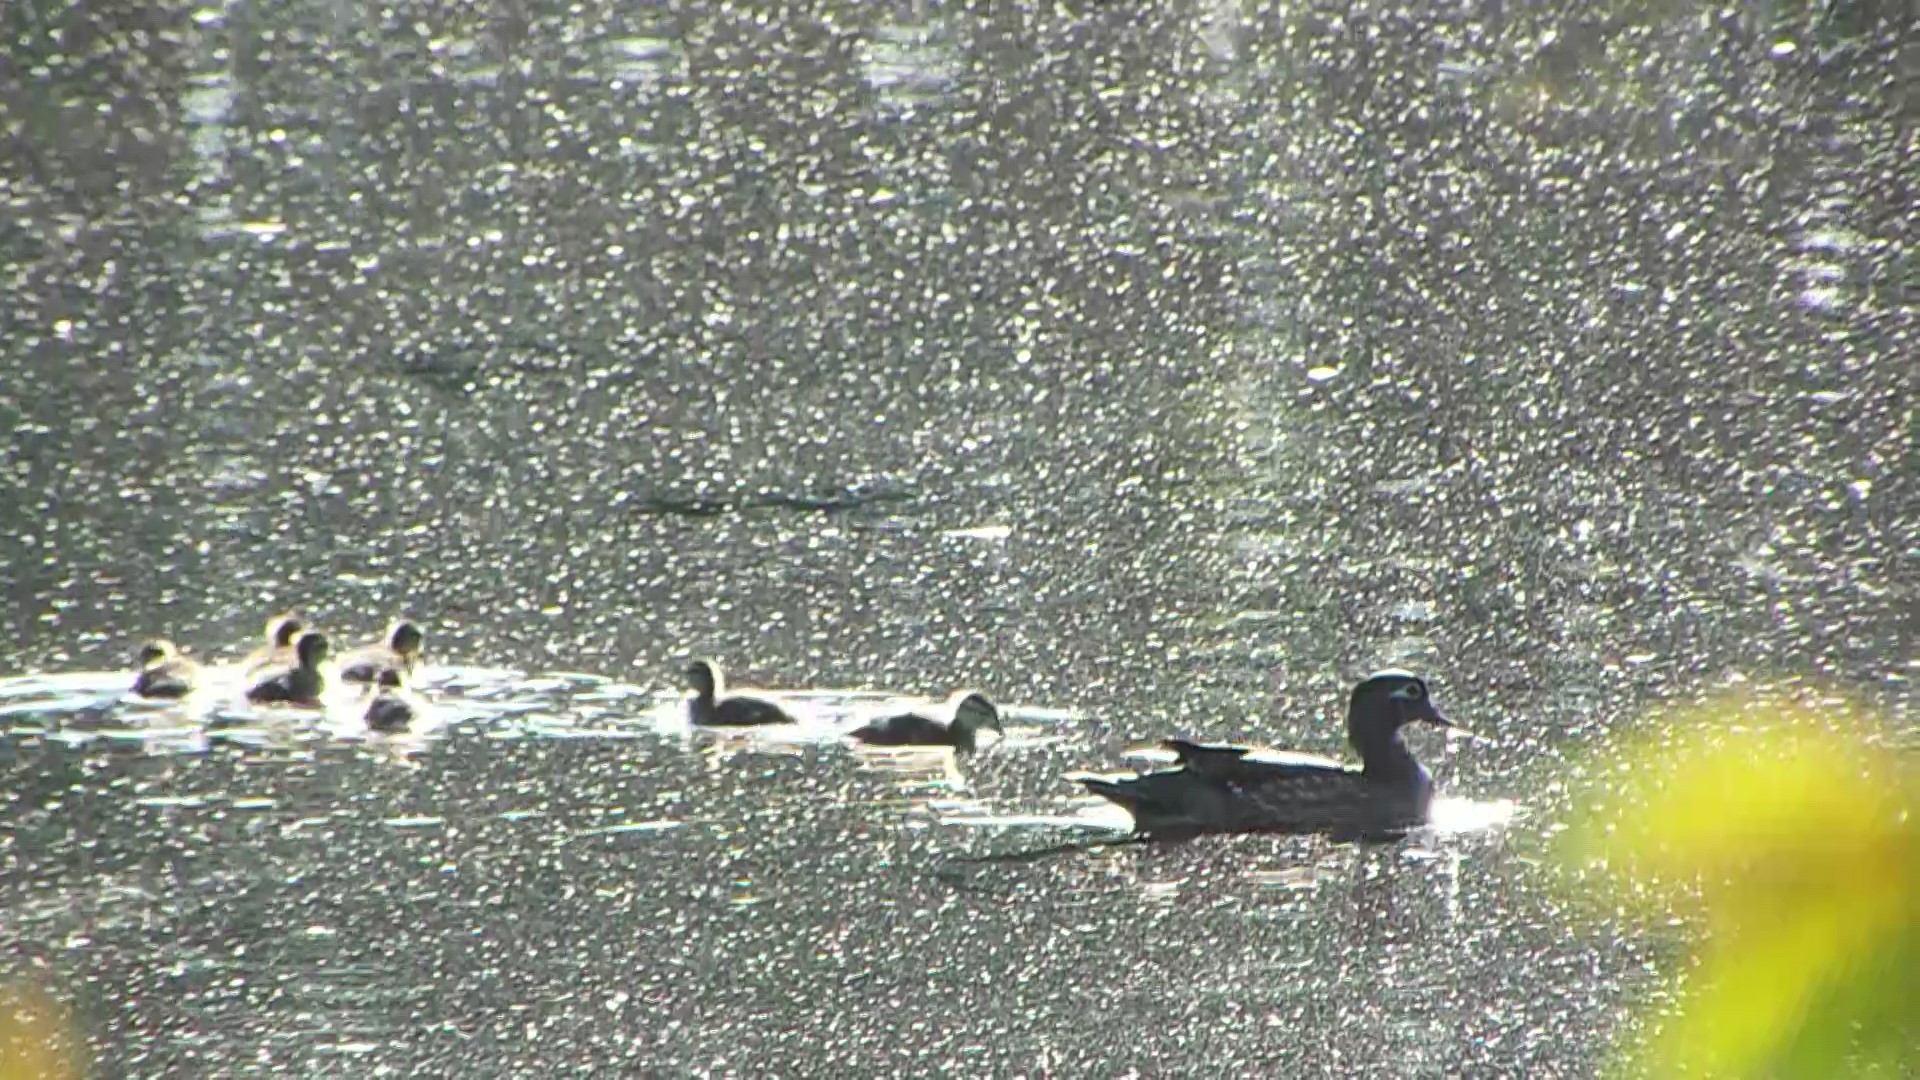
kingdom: Animalia
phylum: Chordata
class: Aves
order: Anseriformes
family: Anatidae
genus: Aix
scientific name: Aix sponsa
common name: Wood duck
